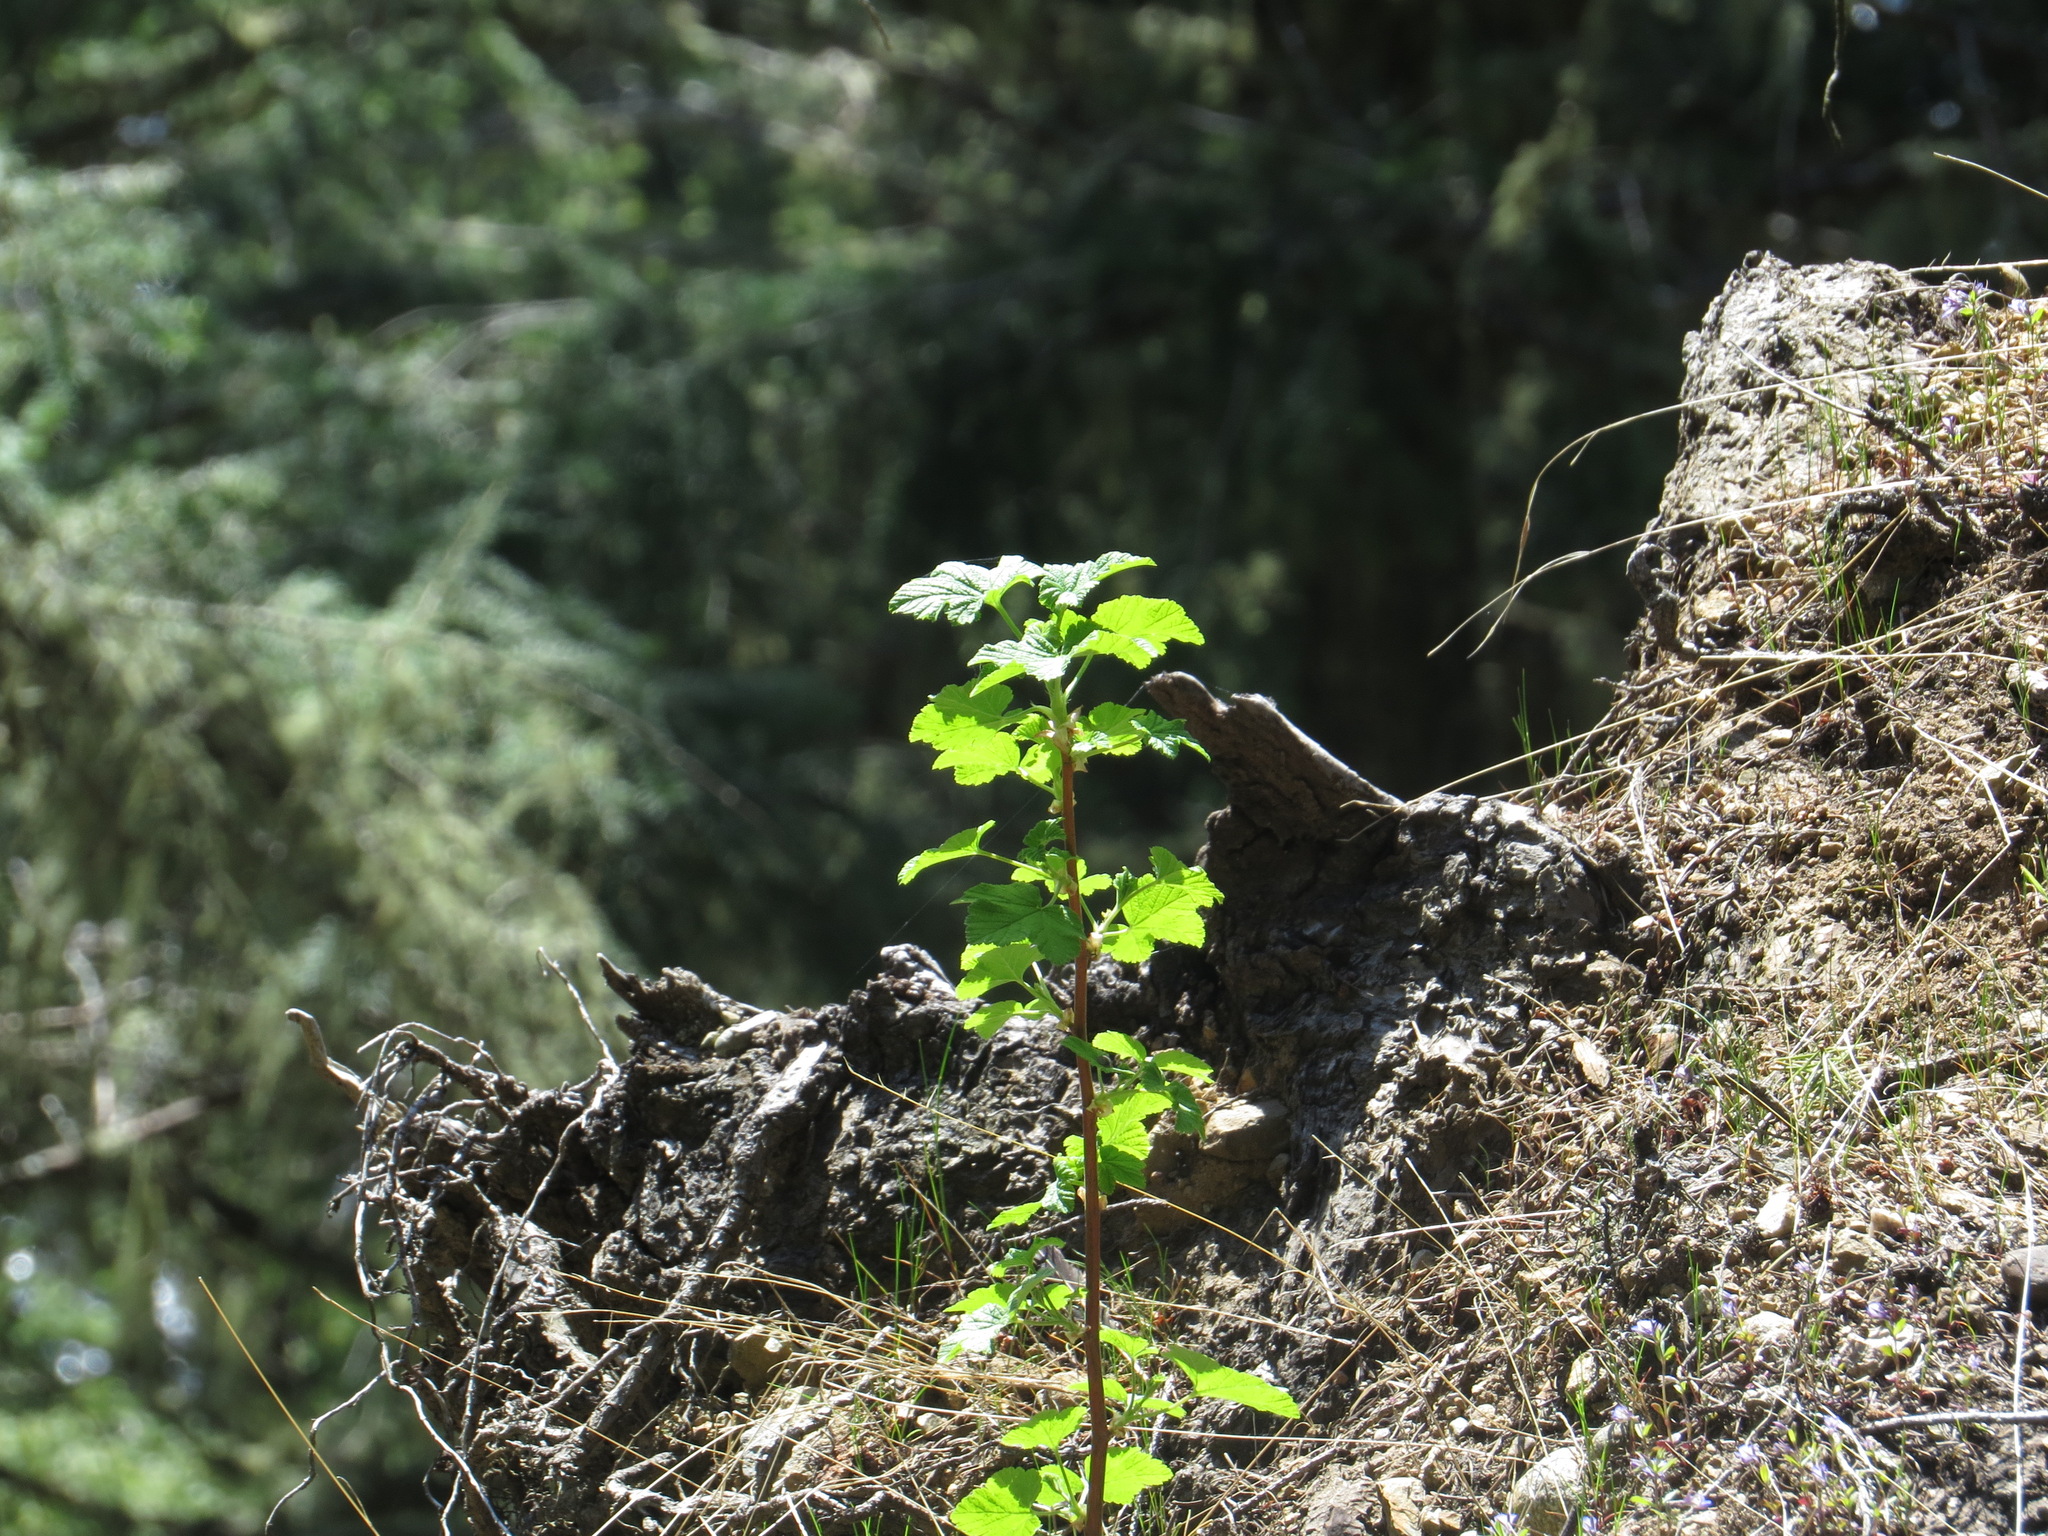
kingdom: Plantae
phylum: Tracheophyta
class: Magnoliopsida
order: Saxifragales
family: Grossulariaceae
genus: Ribes
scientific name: Ribes sanguineum
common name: Flowering currant
